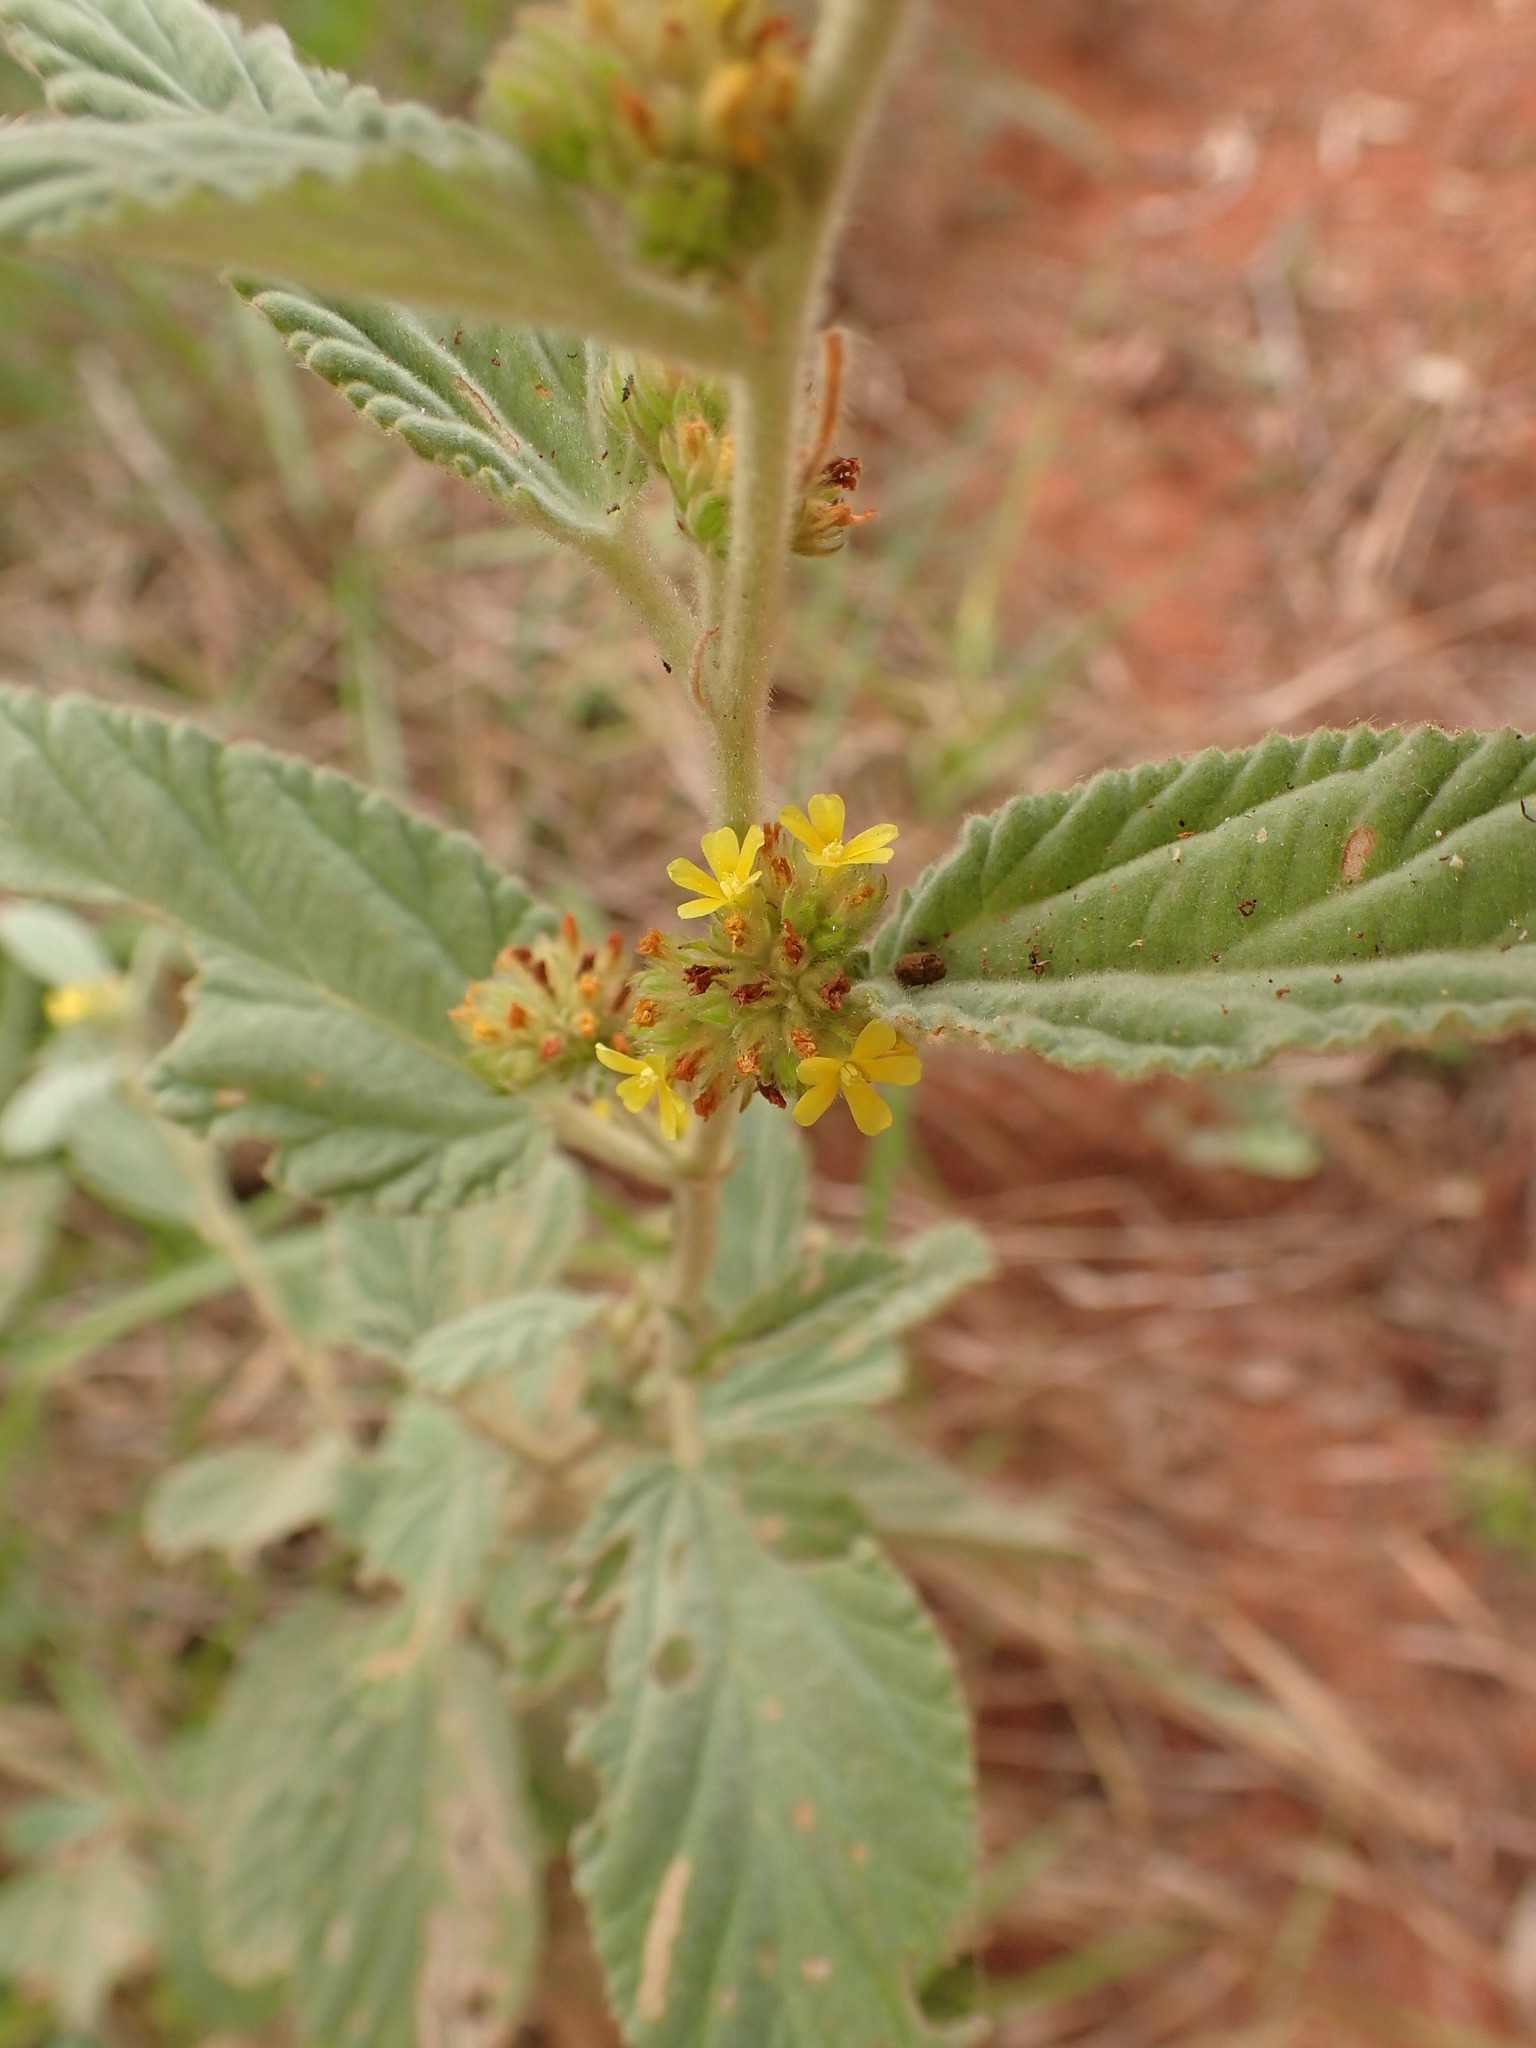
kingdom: Plantae
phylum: Tracheophyta
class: Magnoliopsida
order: Malvales
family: Malvaceae
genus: Waltheria
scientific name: Waltheria indica
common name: Leather-coat
